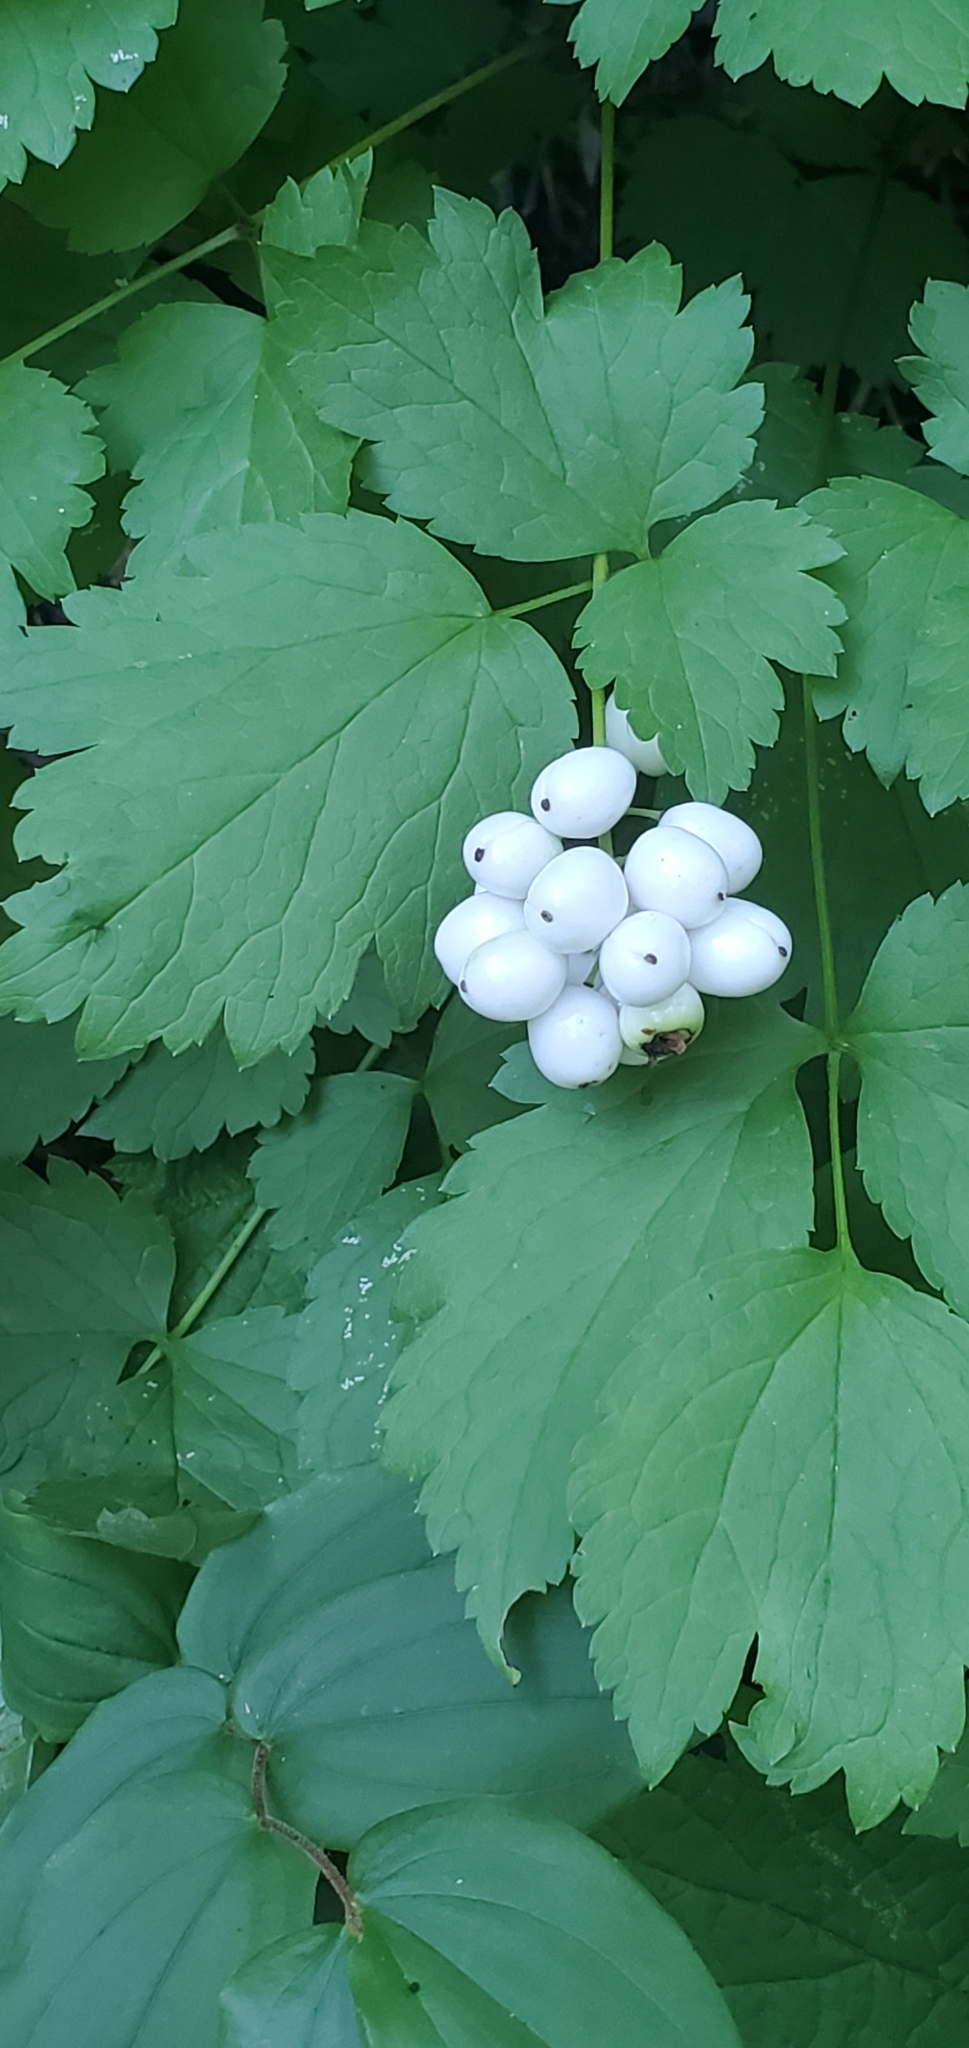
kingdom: Plantae
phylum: Tracheophyta
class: Magnoliopsida
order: Ranunculales
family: Ranunculaceae
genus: Actaea
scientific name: Actaea rubra
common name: Red baneberry
